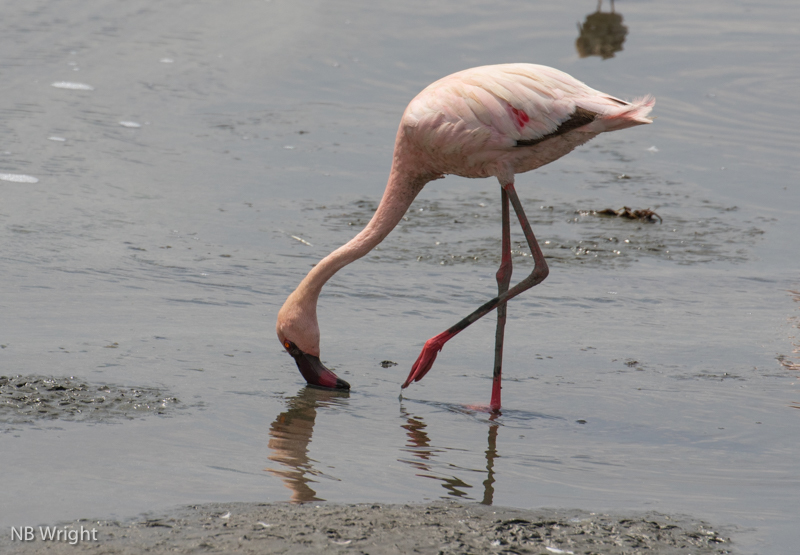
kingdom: Animalia
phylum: Chordata
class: Aves
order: Phoenicopteriformes
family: Phoenicopteridae
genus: Phoeniconaias
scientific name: Phoeniconaias minor
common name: Lesser flamingo
